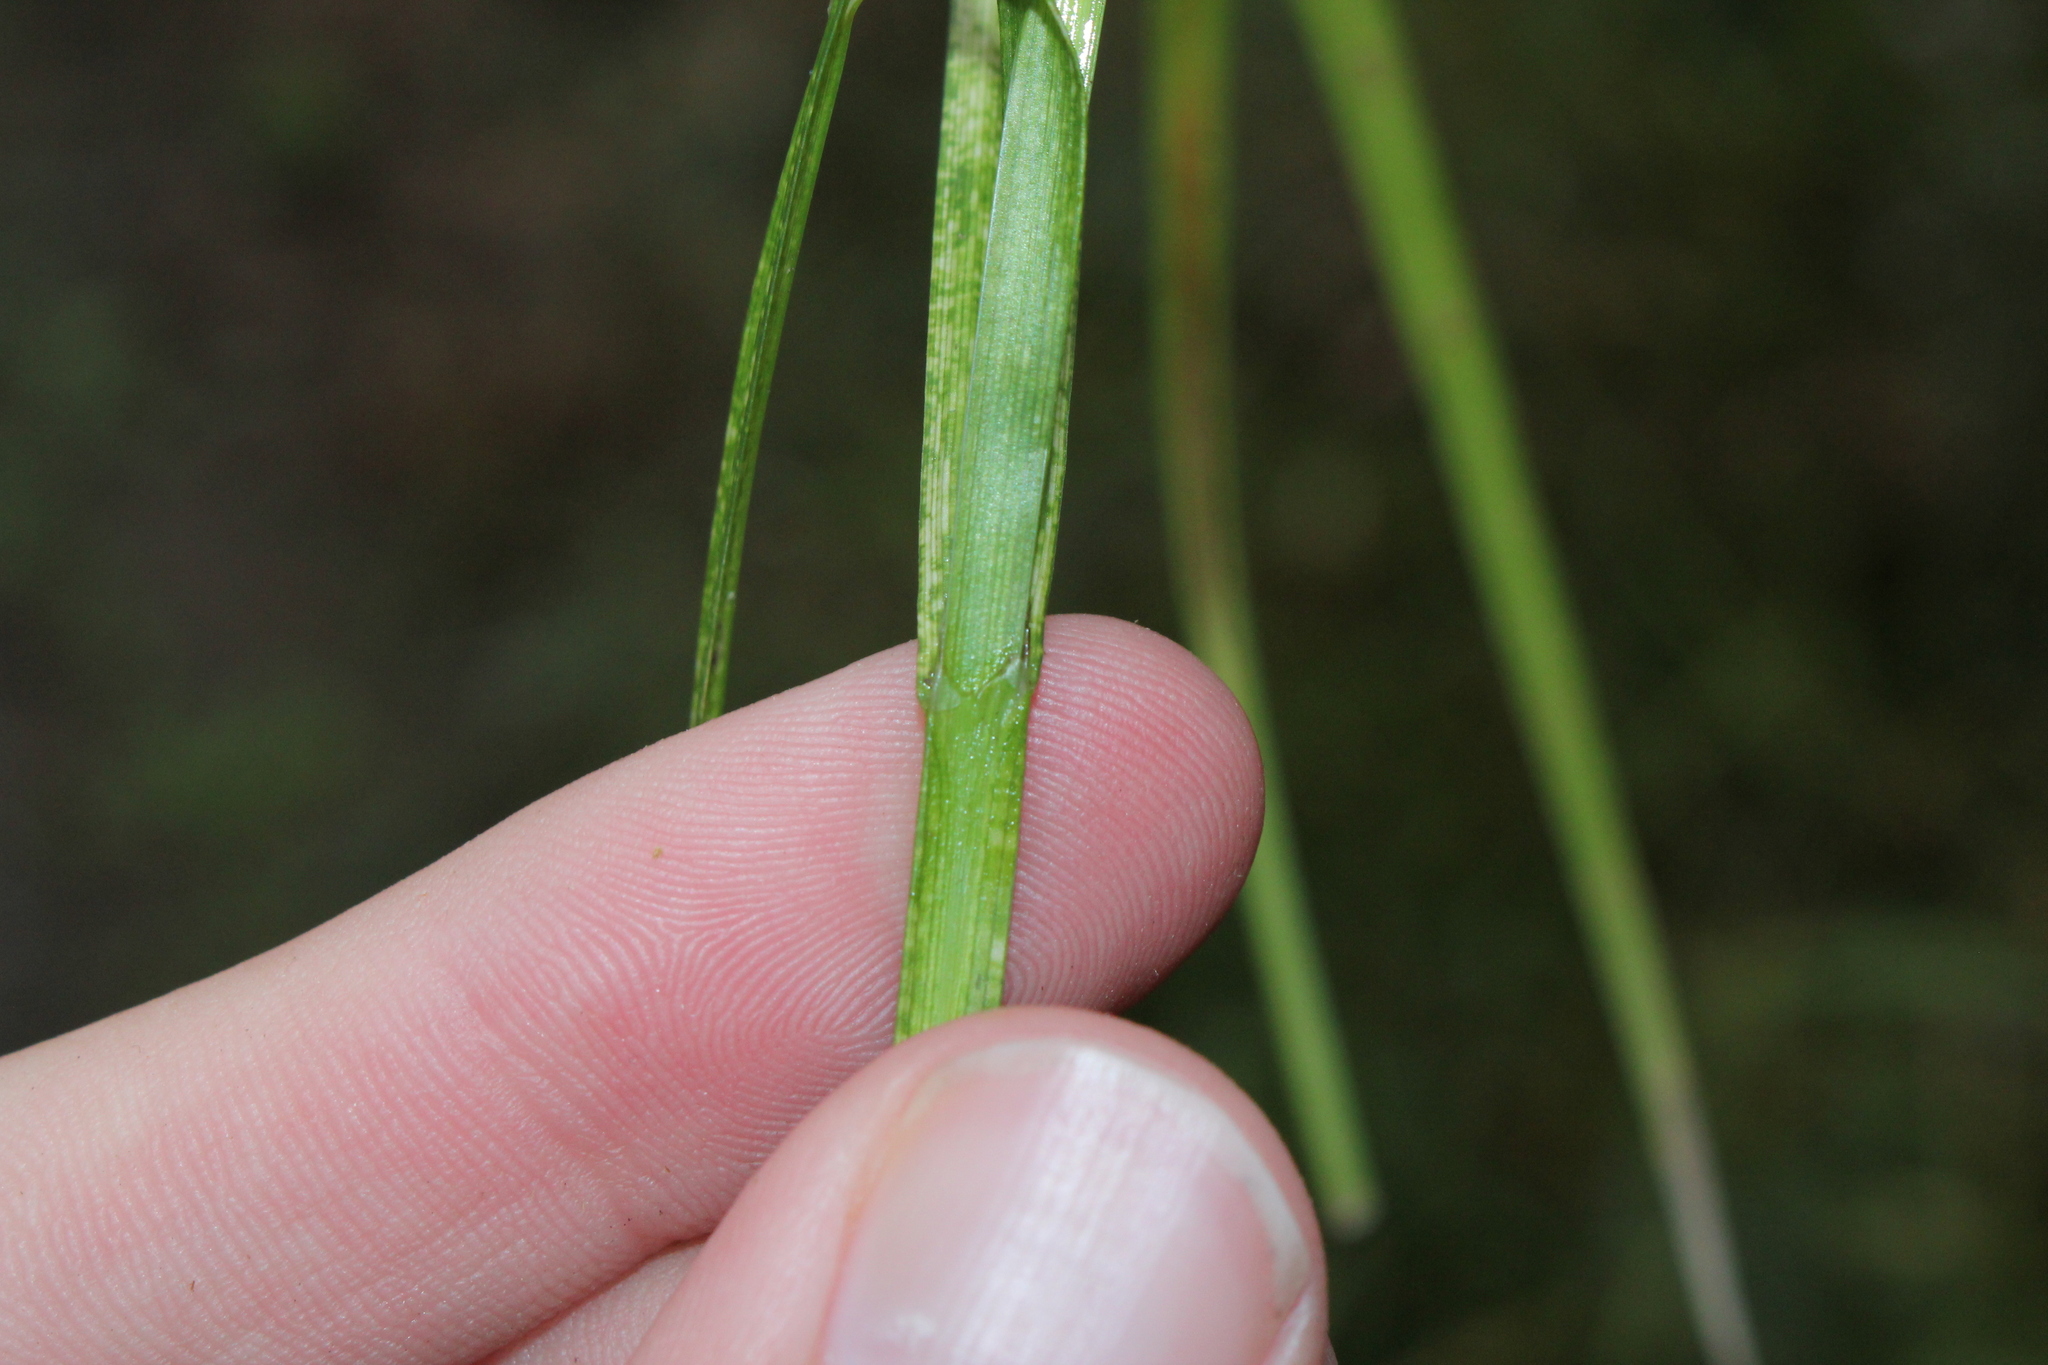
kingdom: Plantae
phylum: Tracheophyta
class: Liliopsida
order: Poales
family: Cyperaceae
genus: Carex
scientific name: Carex bebbii
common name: Bebb's sedge
